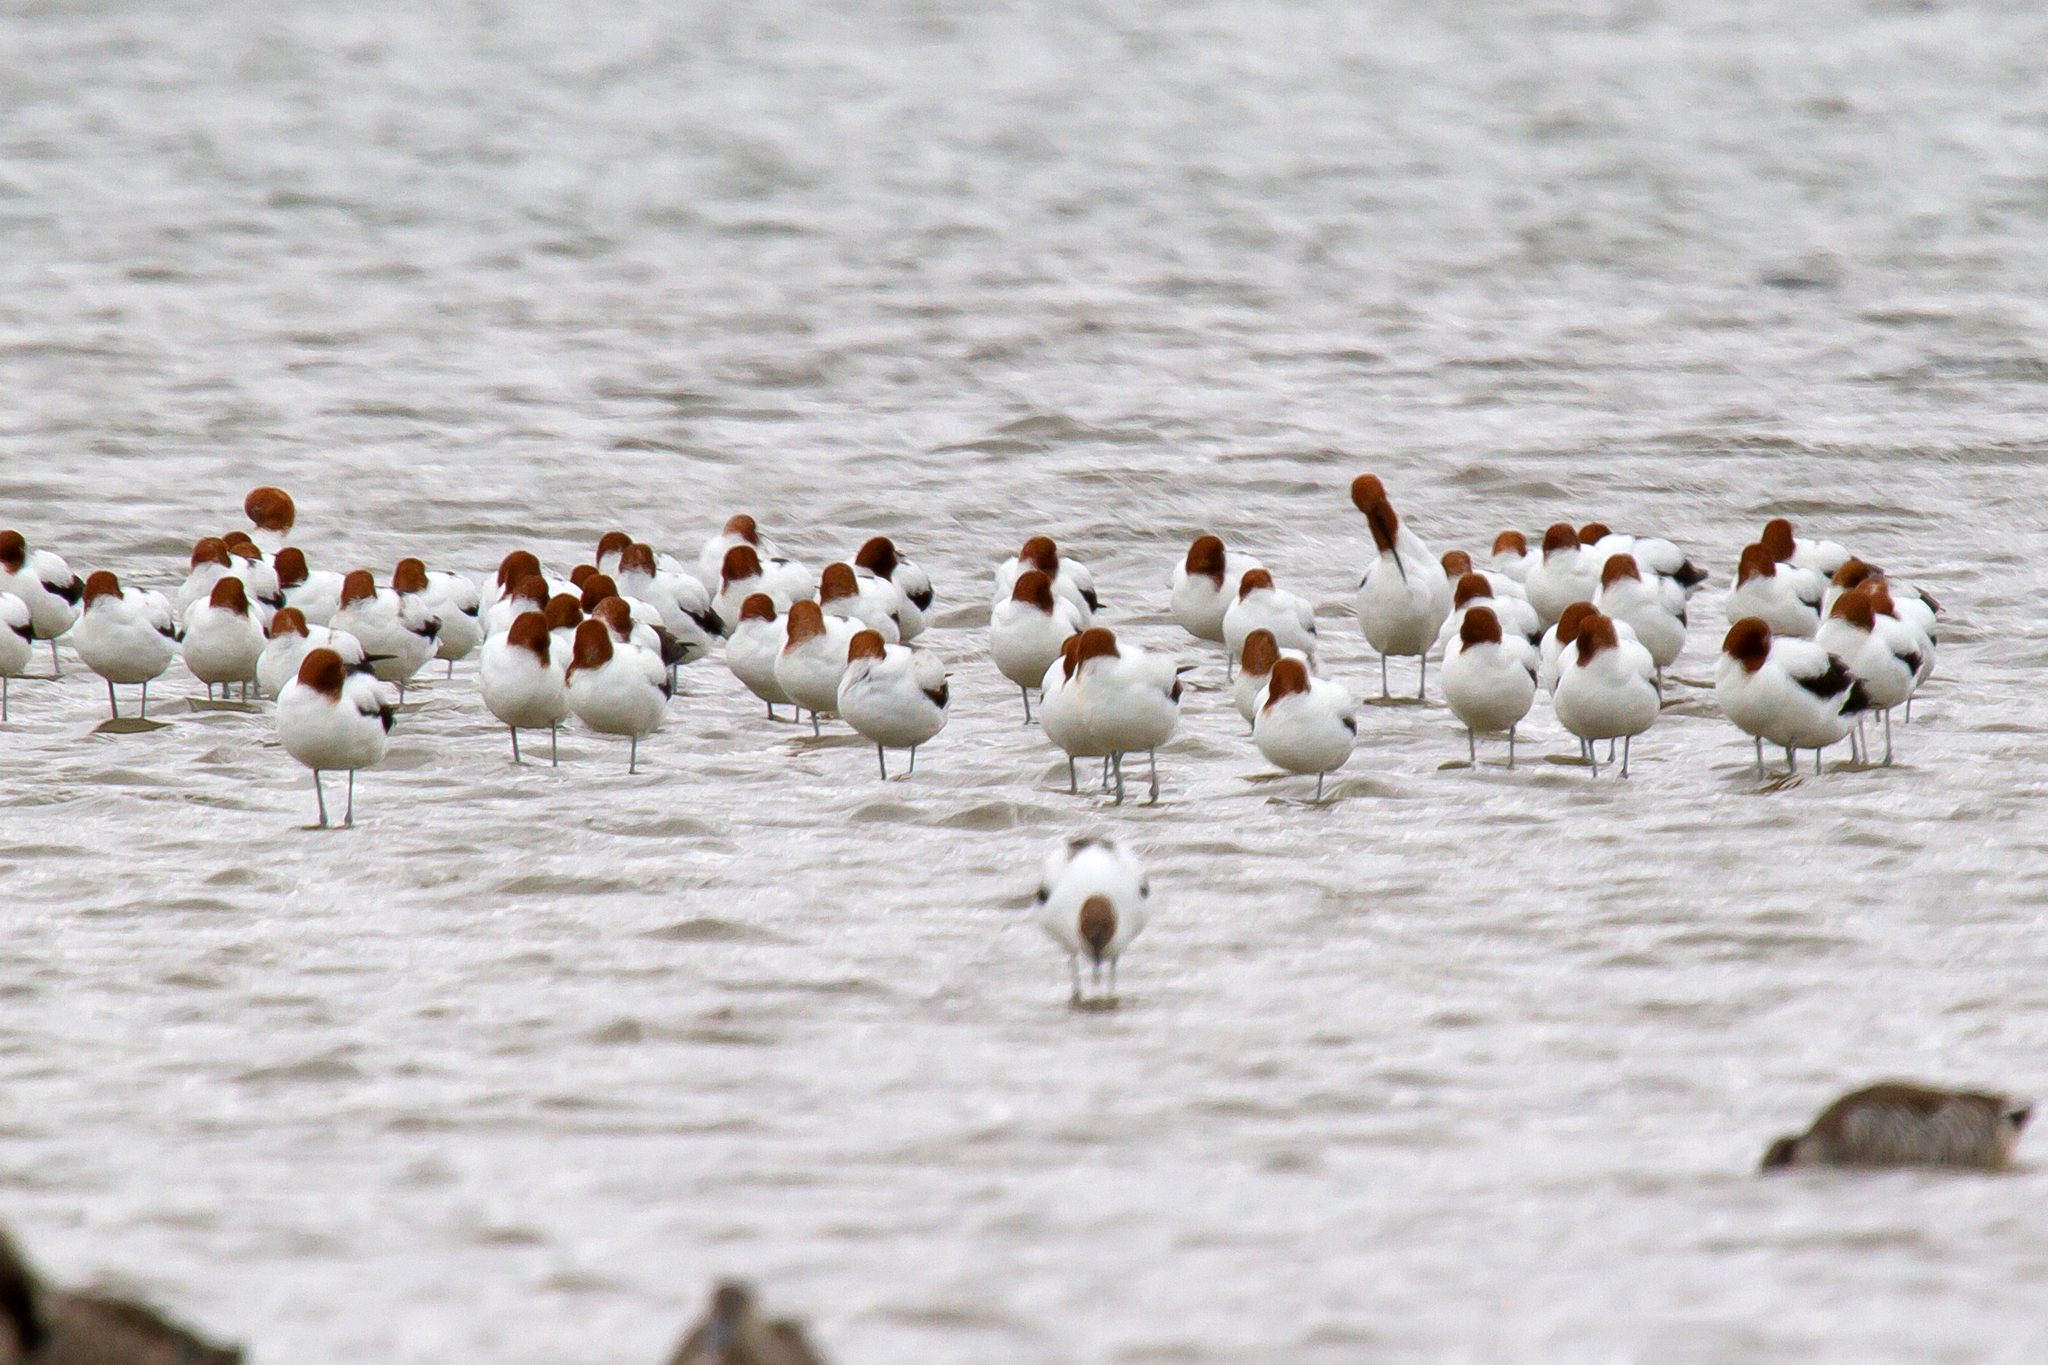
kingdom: Animalia
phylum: Chordata
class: Aves
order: Charadriiformes
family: Recurvirostridae
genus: Recurvirostra
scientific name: Recurvirostra novaehollandiae
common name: Red-necked avocet
